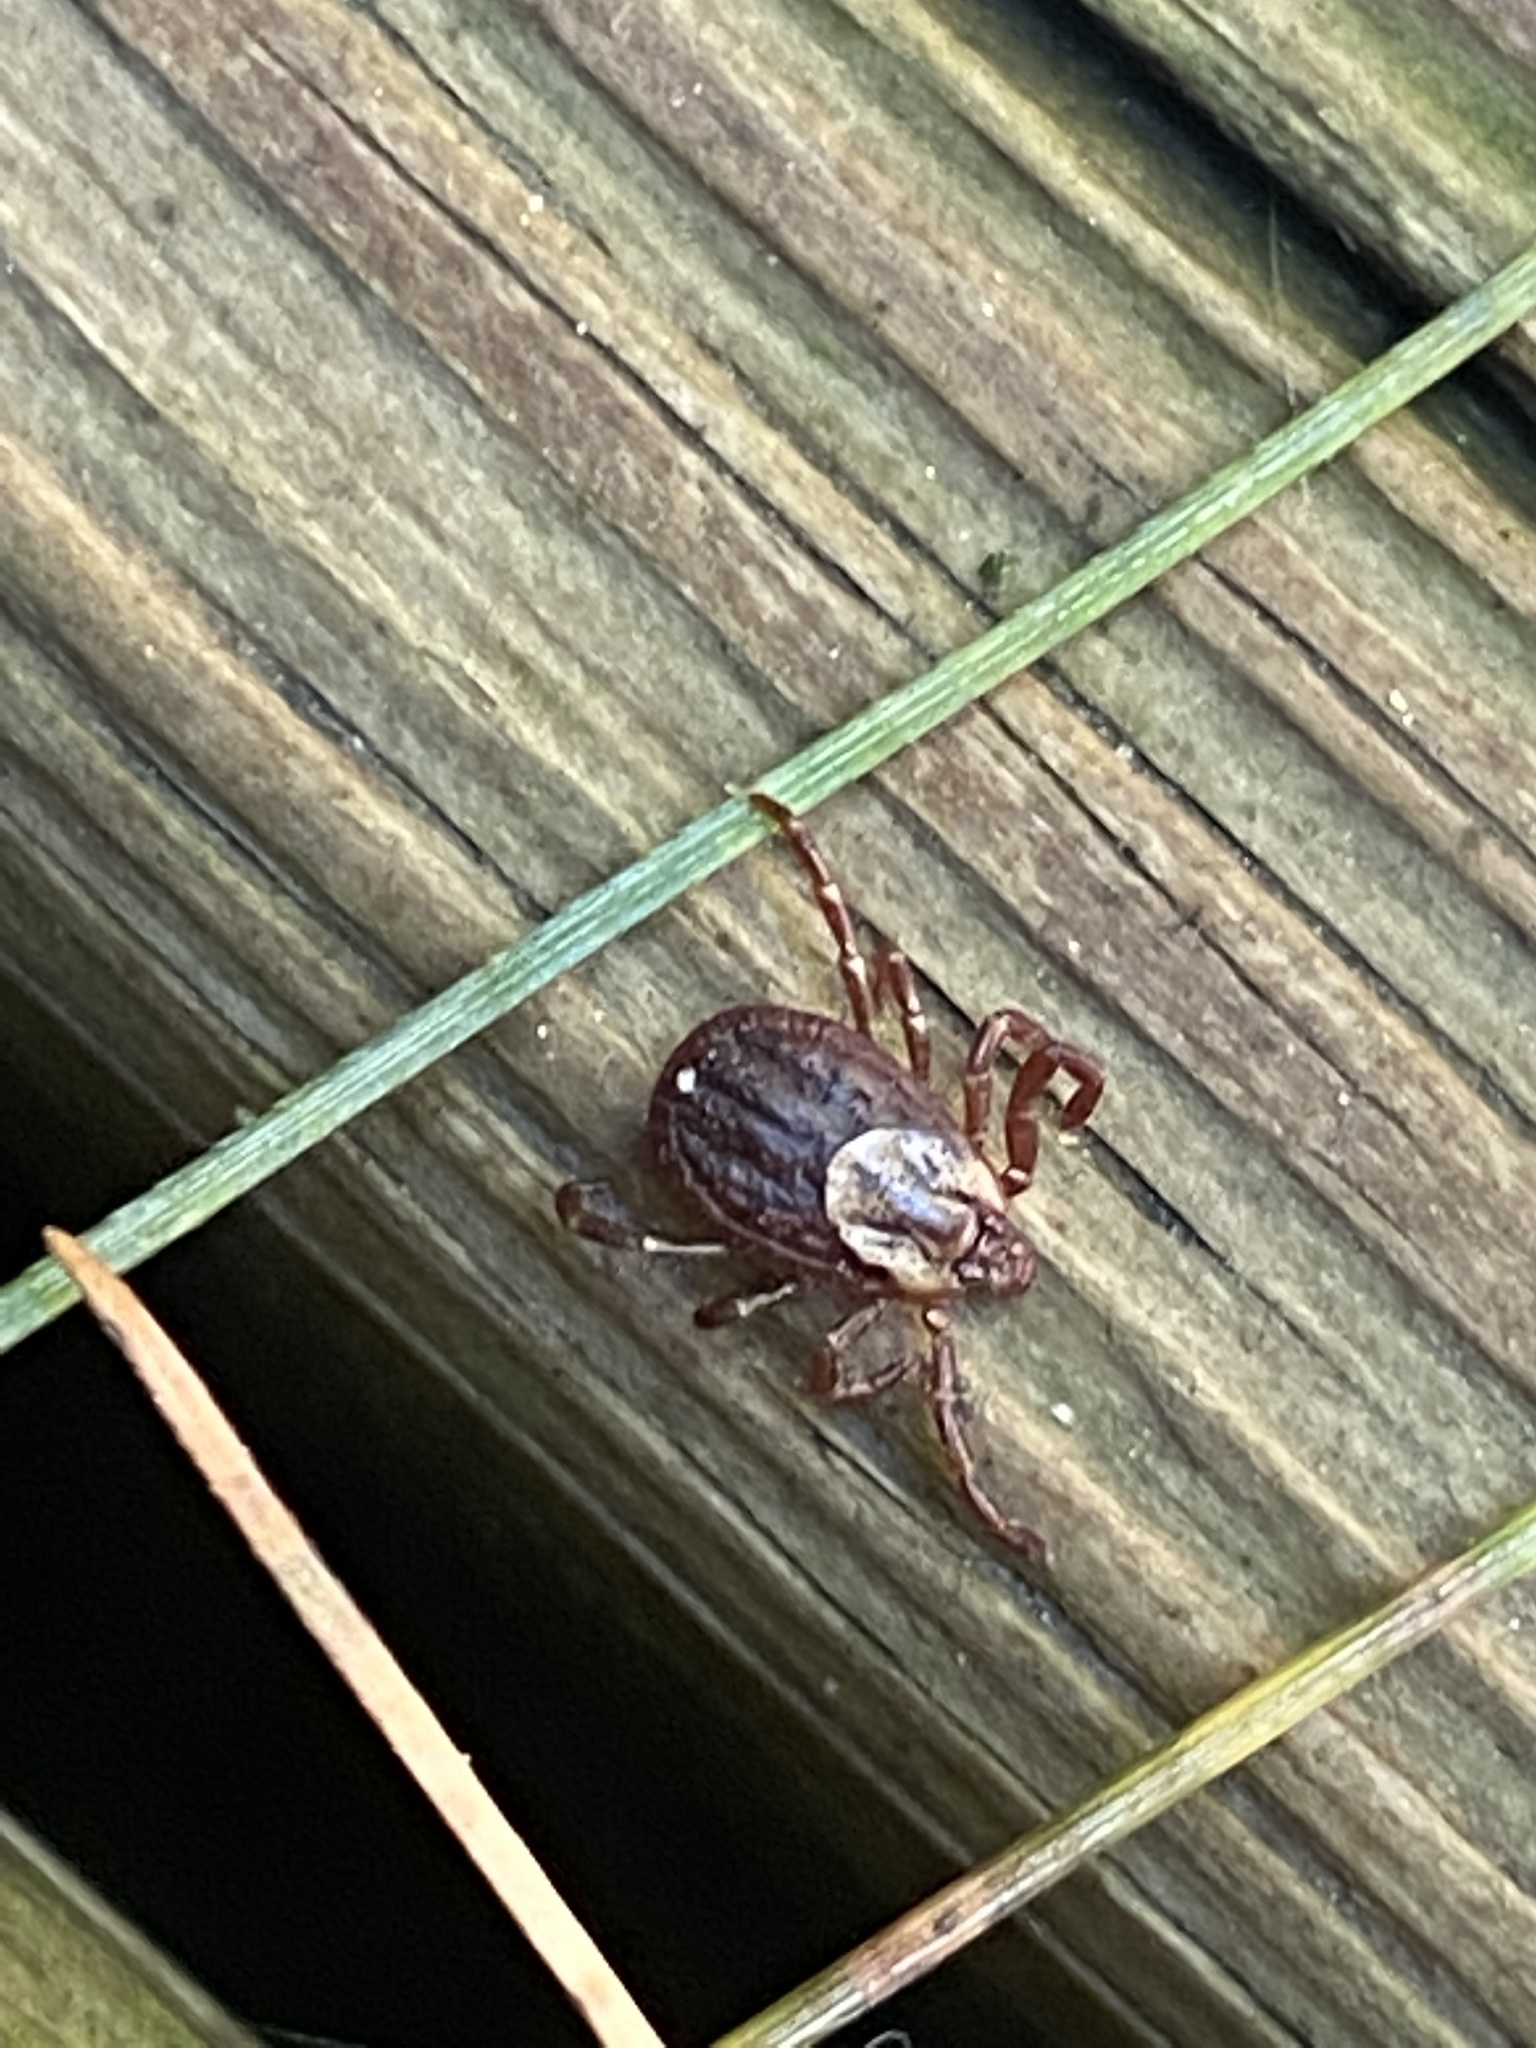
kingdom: Animalia
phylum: Arthropoda
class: Arachnida
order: Ixodida
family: Ixodidae
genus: Dermacentor
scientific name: Dermacentor variabilis
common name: American dog tick
